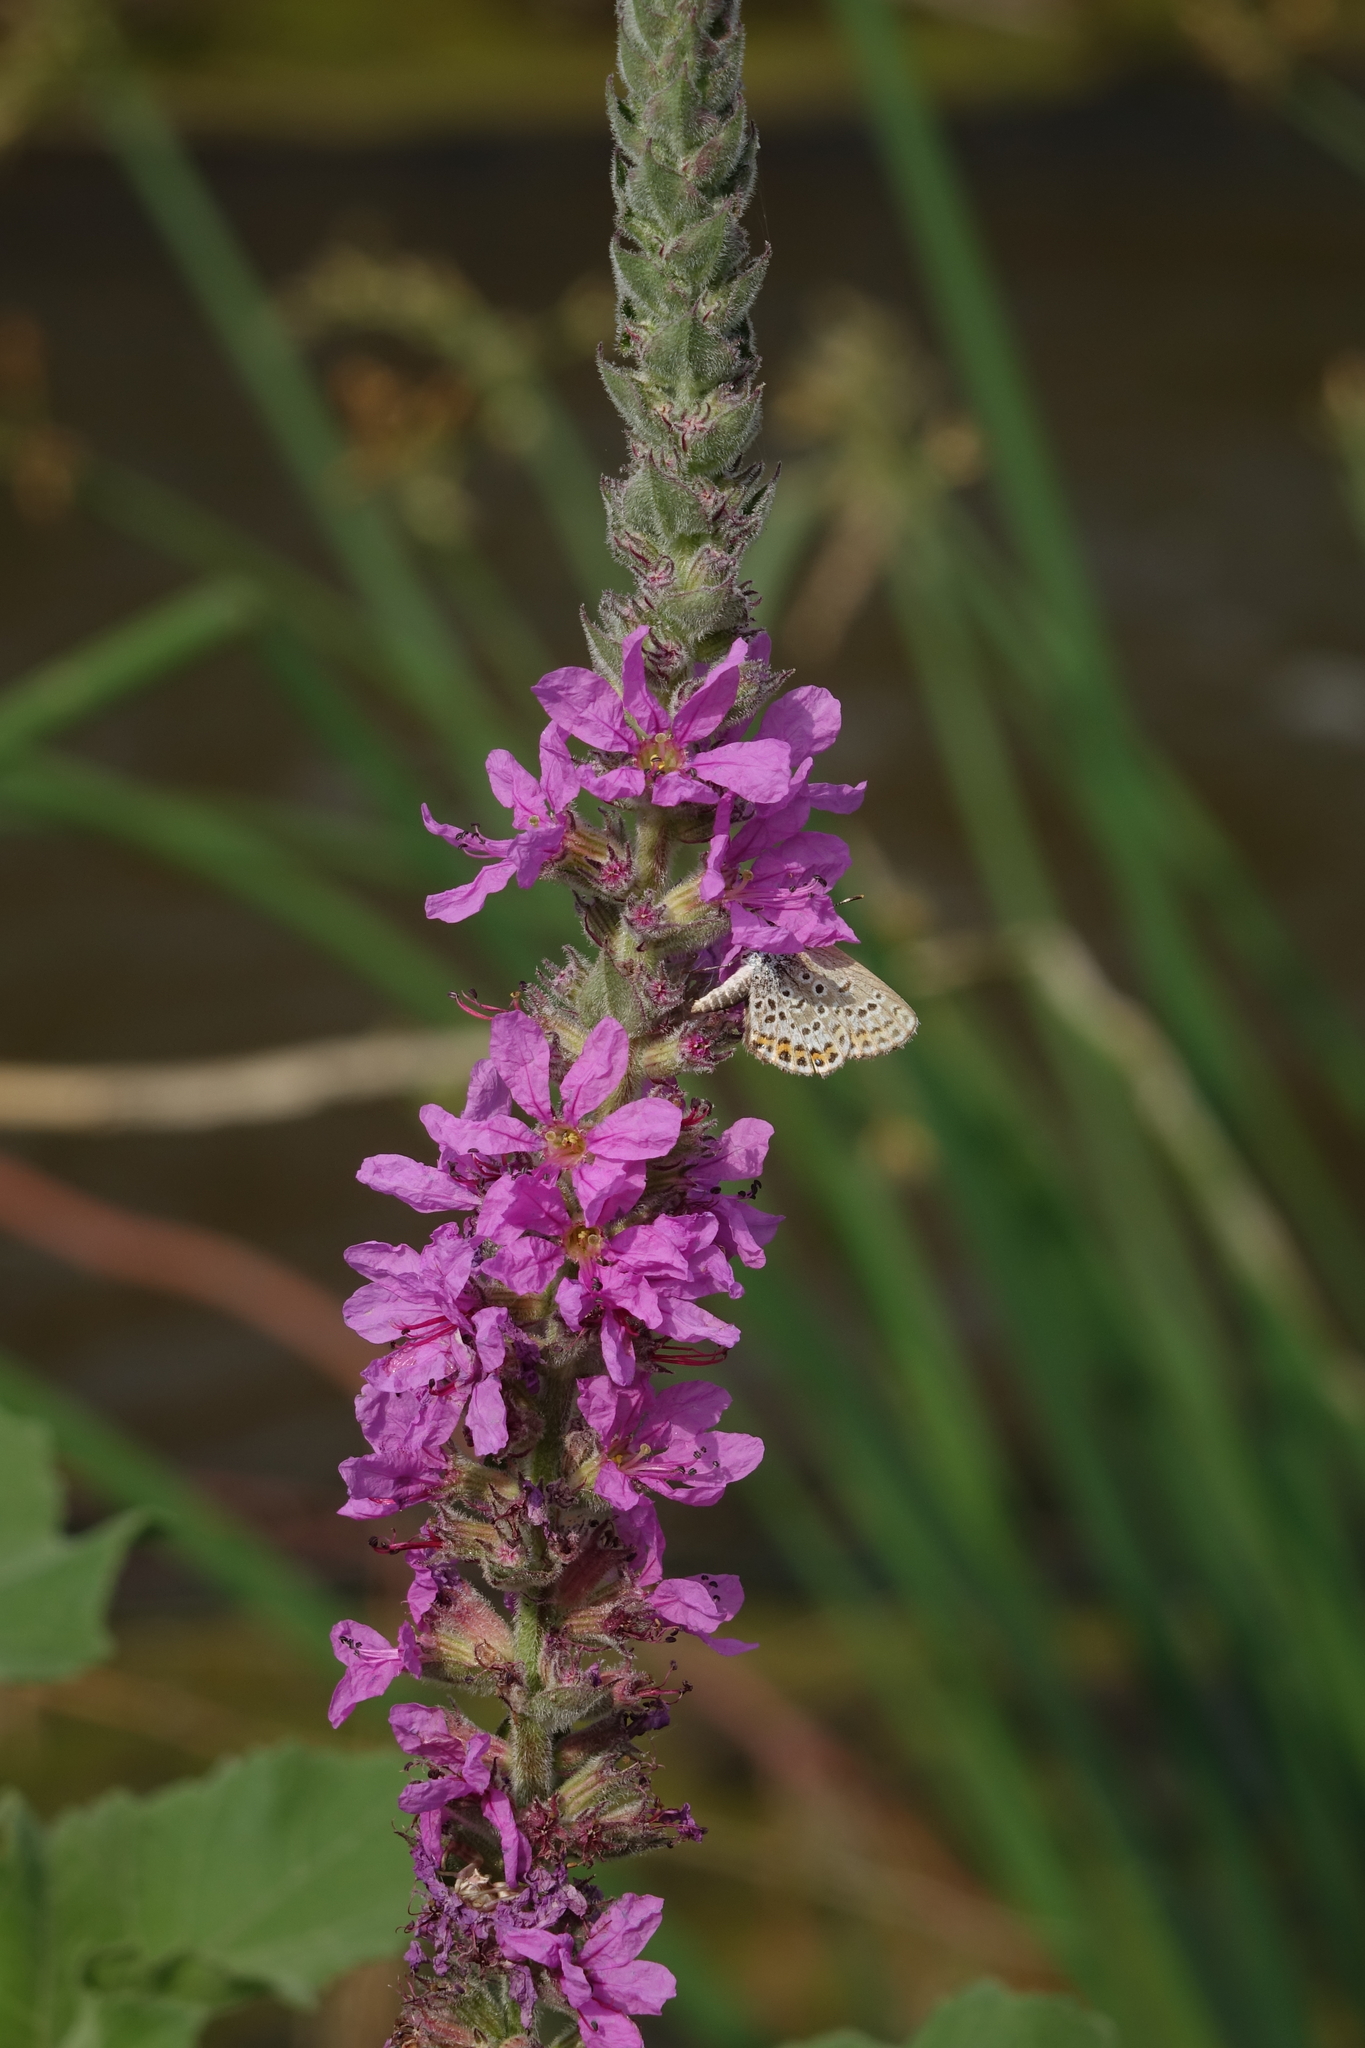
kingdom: Plantae
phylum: Tracheophyta
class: Magnoliopsida
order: Myrtales
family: Lythraceae
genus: Lythrum
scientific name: Lythrum salicaria
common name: Purple loosestrife
